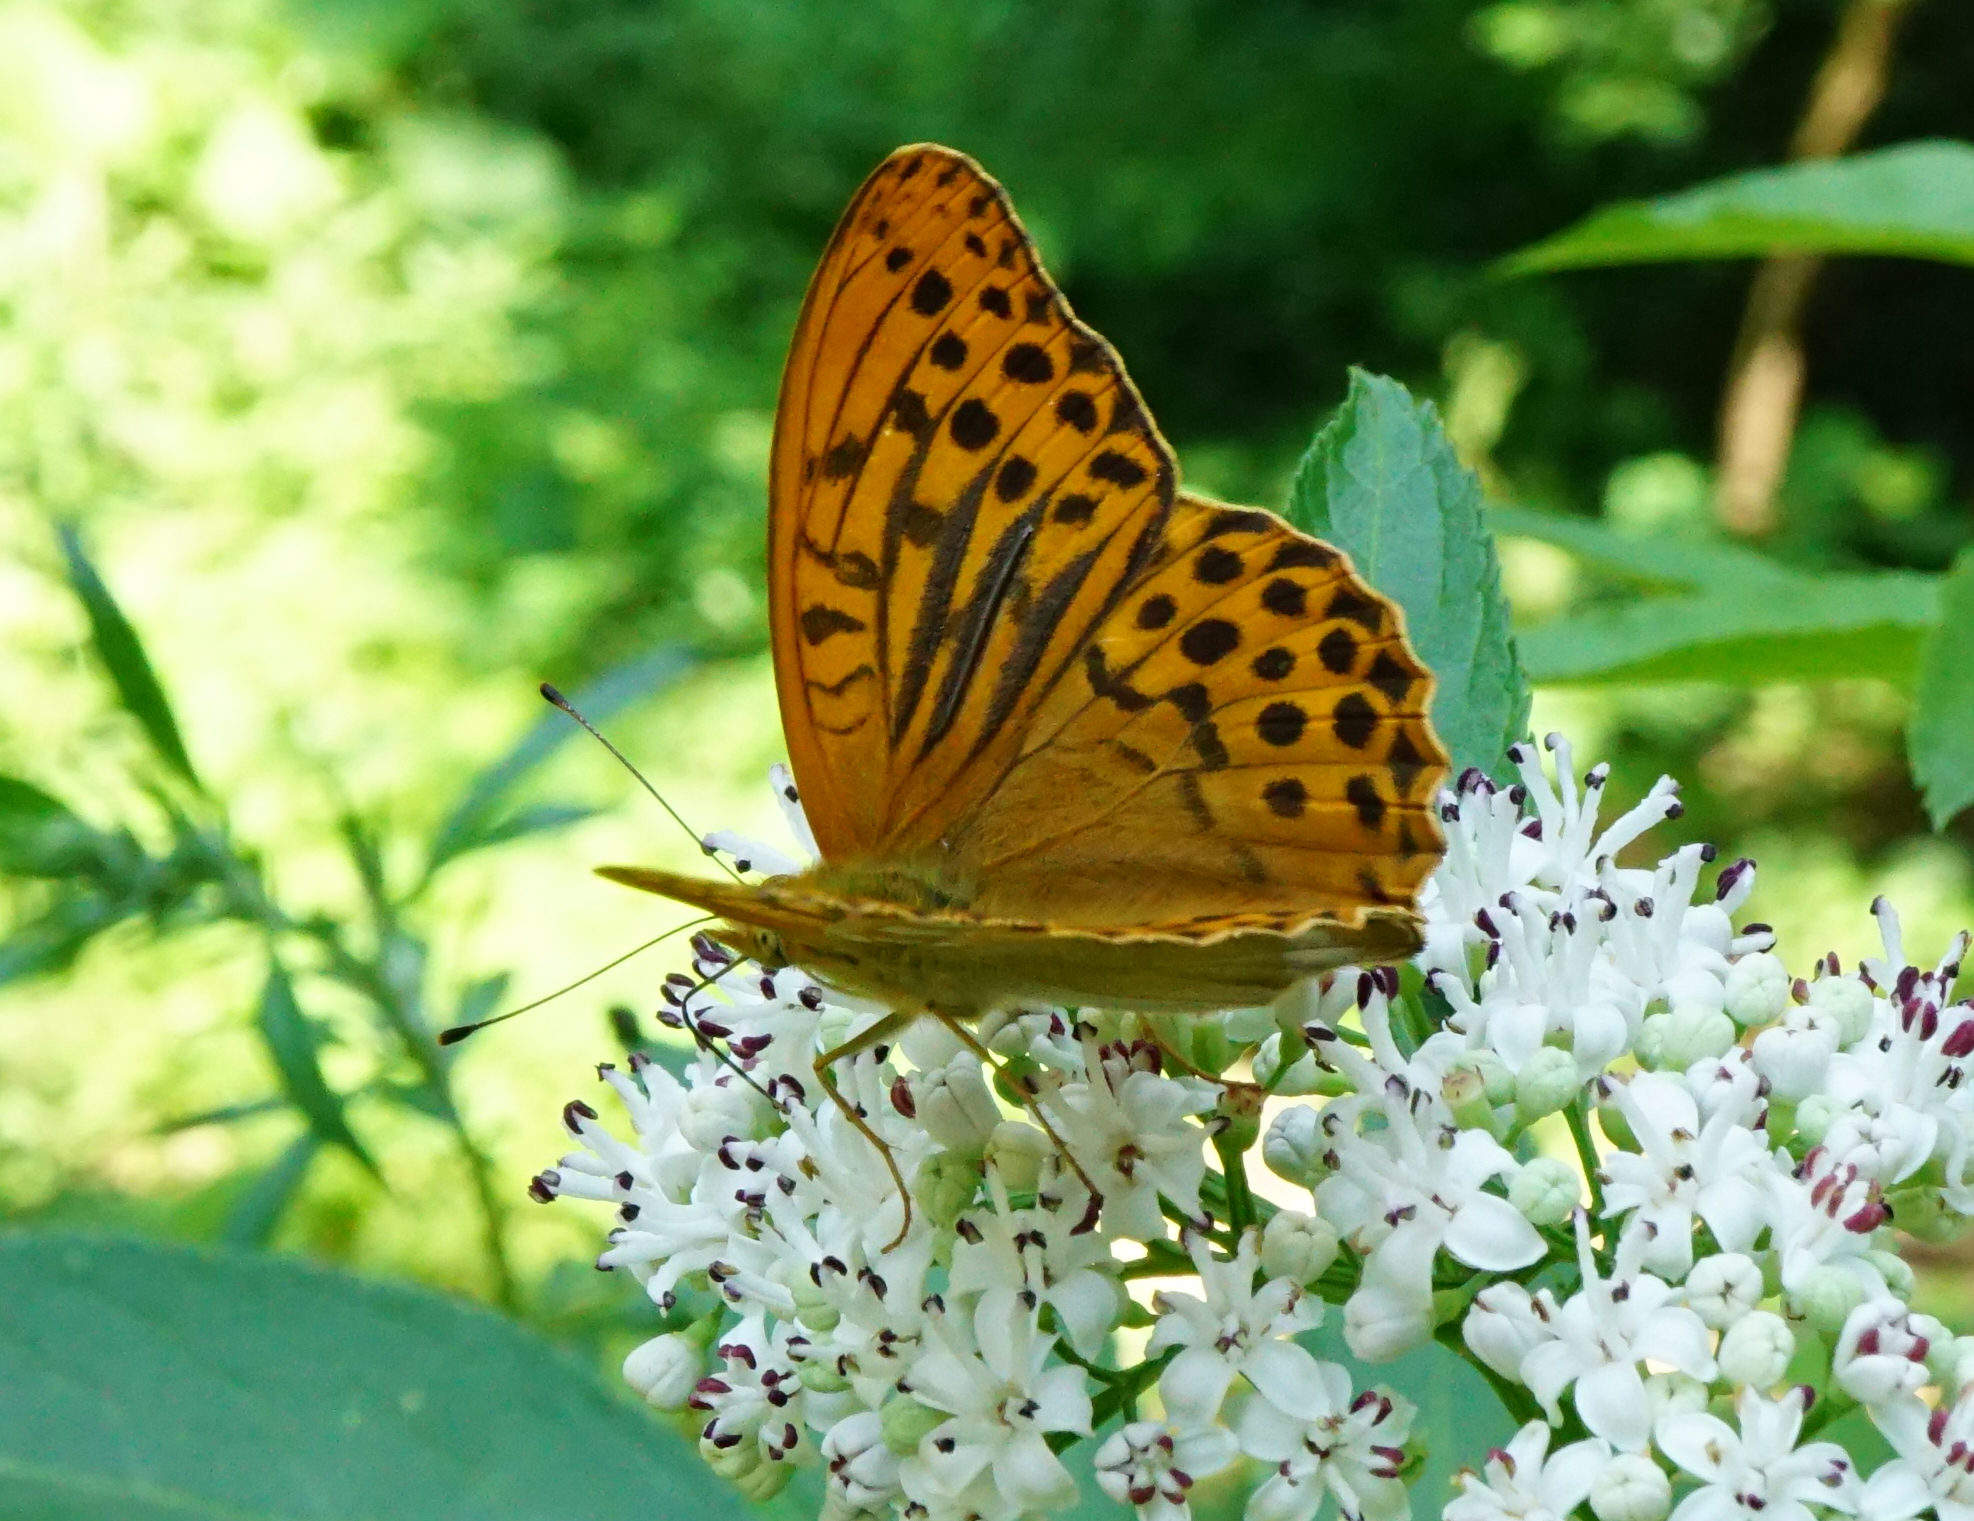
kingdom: Animalia
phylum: Arthropoda
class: Insecta
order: Lepidoptera
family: Nymphalidae
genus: Argynnis
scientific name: Argynnis paphia
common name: Silver-washed fritillary
